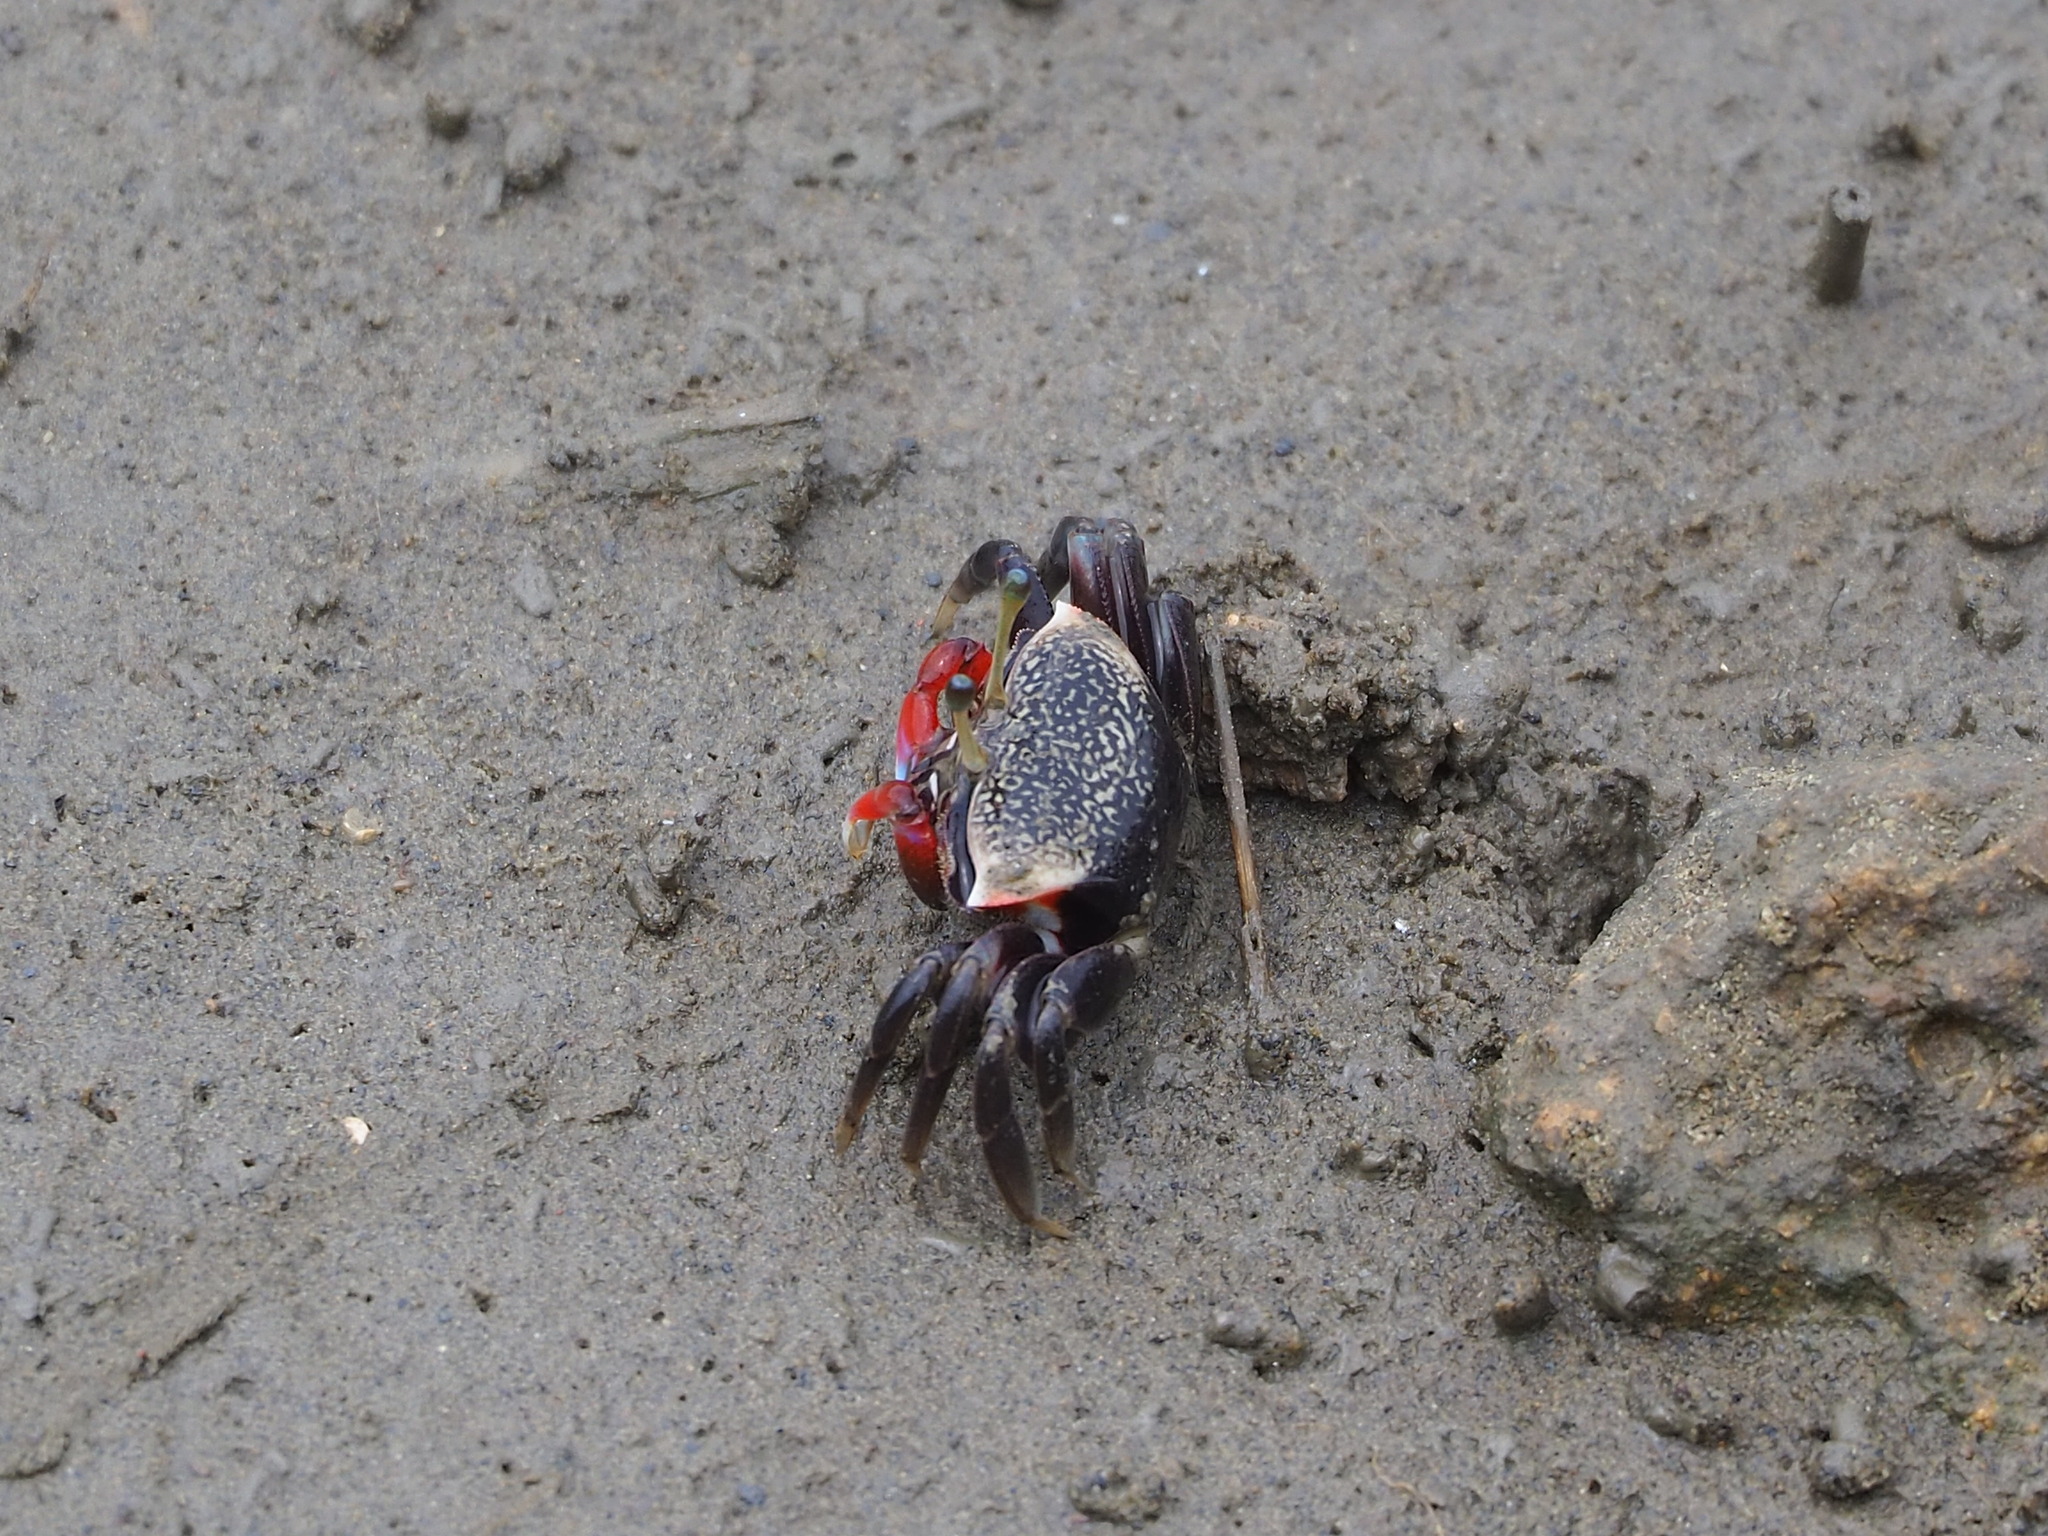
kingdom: Animalia
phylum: Arthropoda
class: Malacostraca
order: Decapoda
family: Ocypodidae
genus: Tubuca
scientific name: Tubuca arcuata
